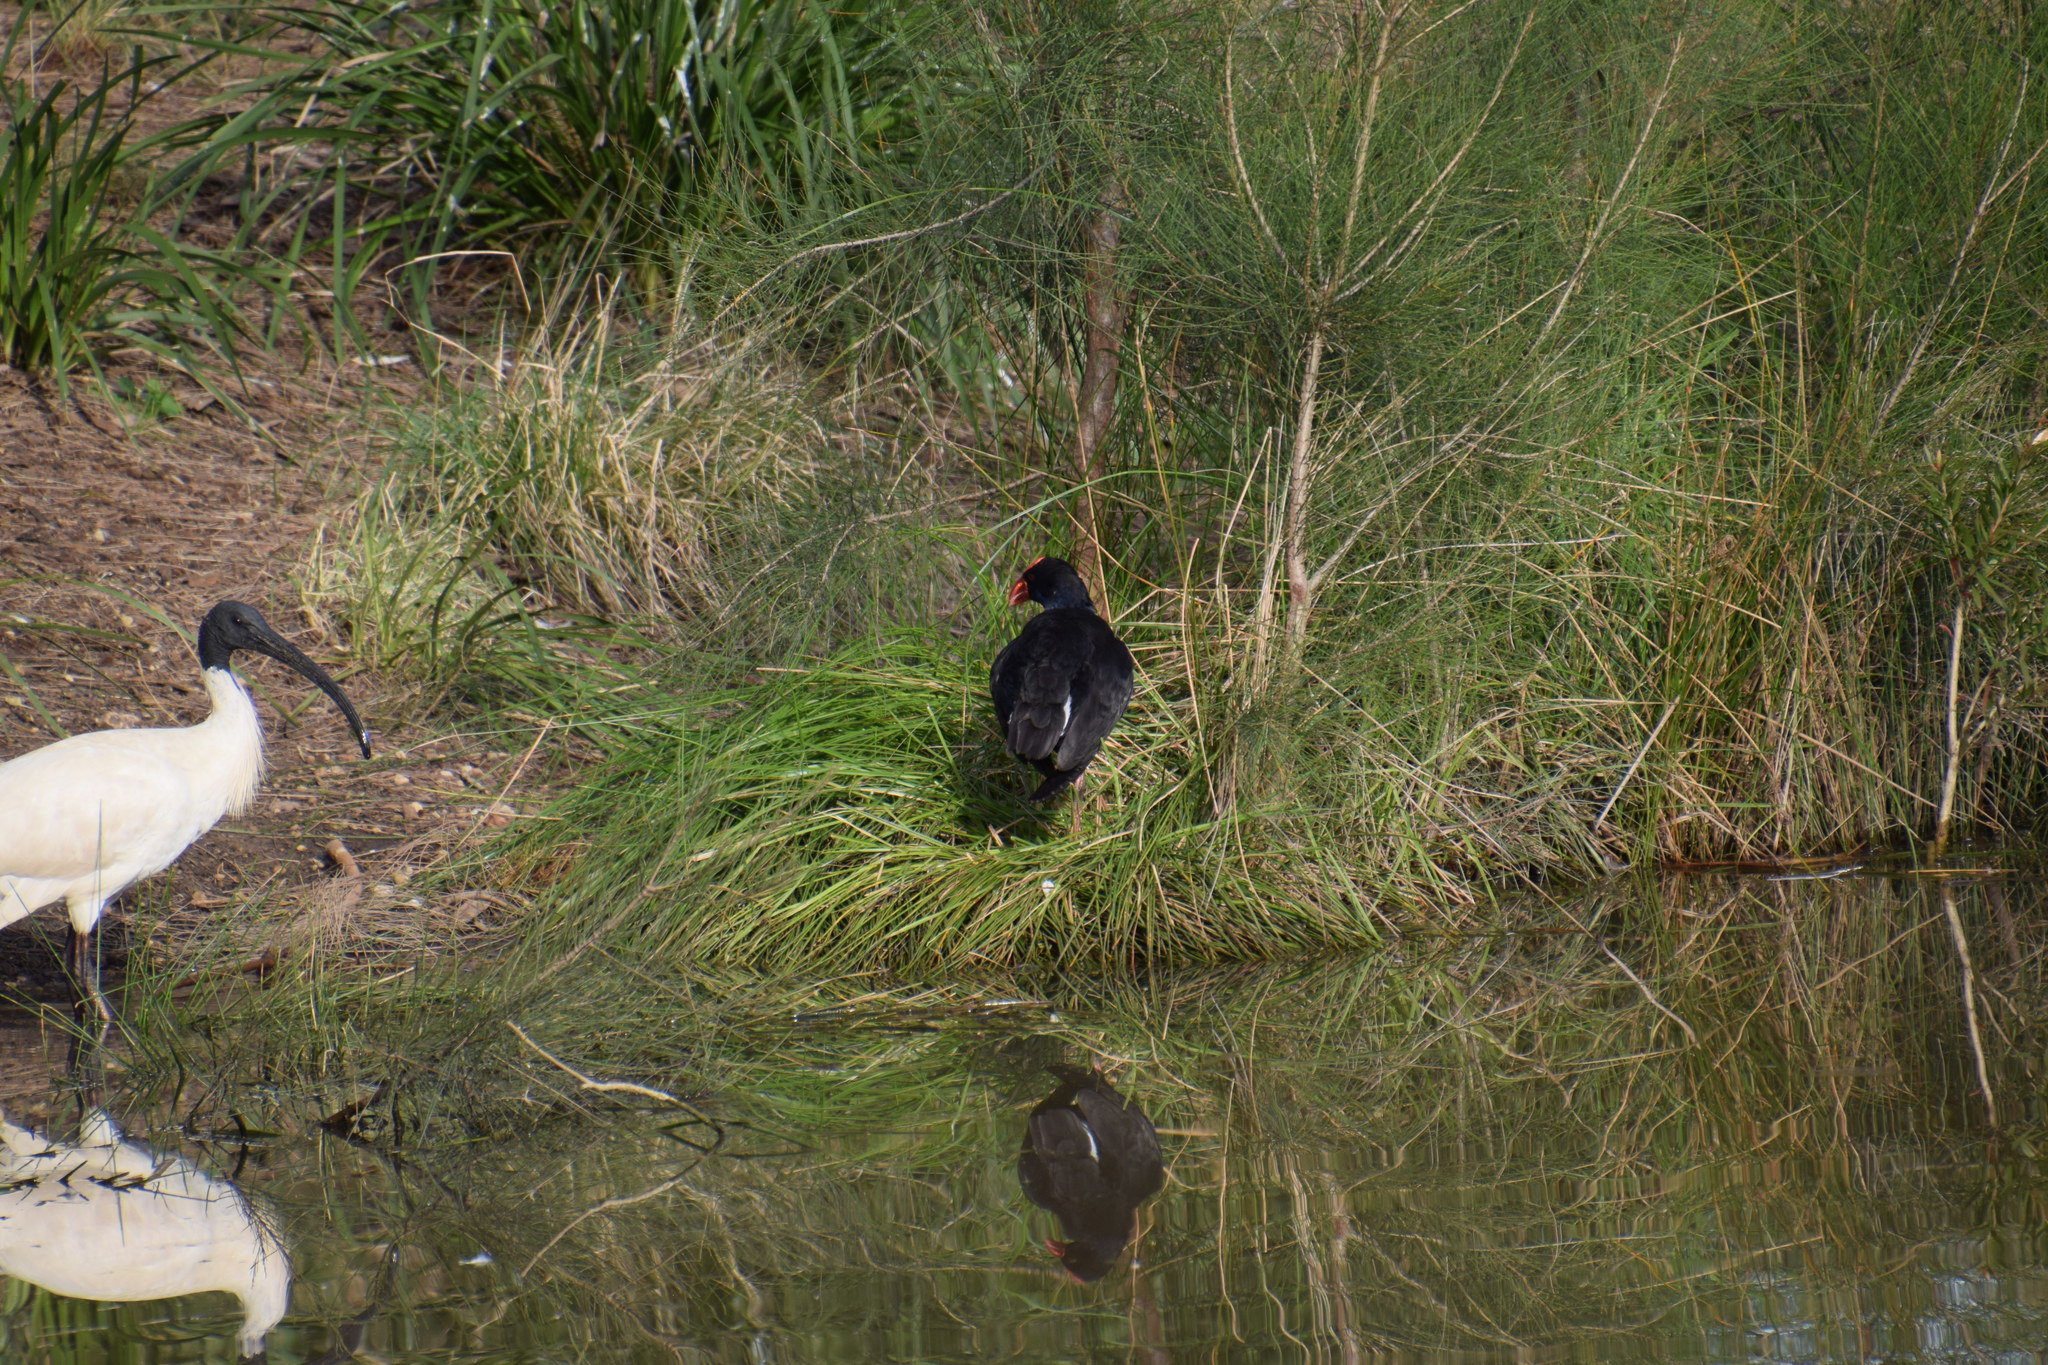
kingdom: Animalia
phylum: Chordata
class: Aves
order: Gruiformes
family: Rallidae
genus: Porphyrio
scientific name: Porphyrio melanotus
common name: Australasian swamphen
